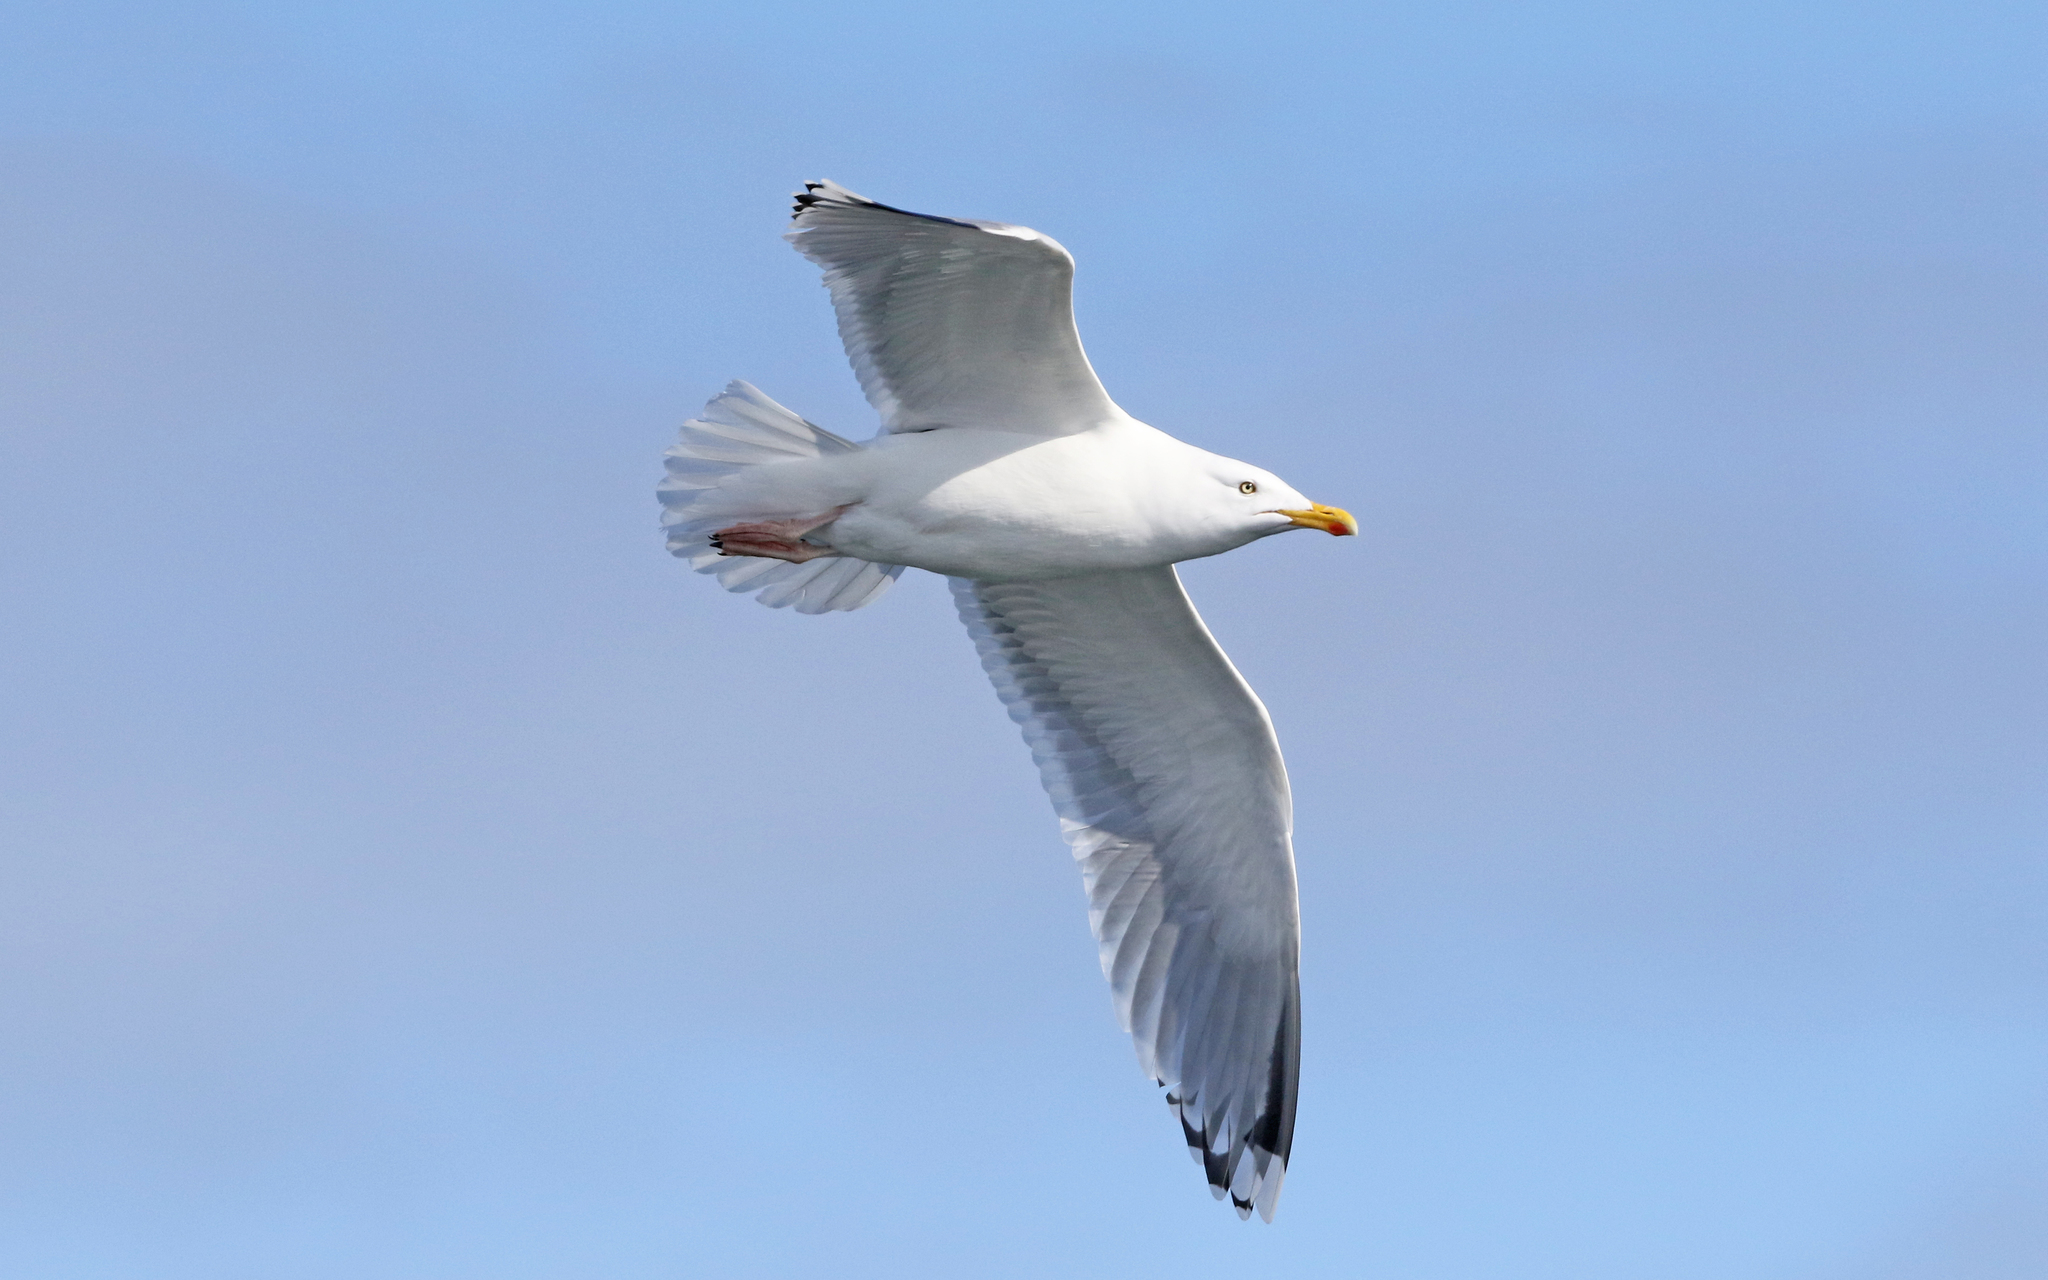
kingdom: Animalia
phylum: Chordata
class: Aves
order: Charadriiformes
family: Laridae
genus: Larus
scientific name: Larus argentatus
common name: Herring gull
